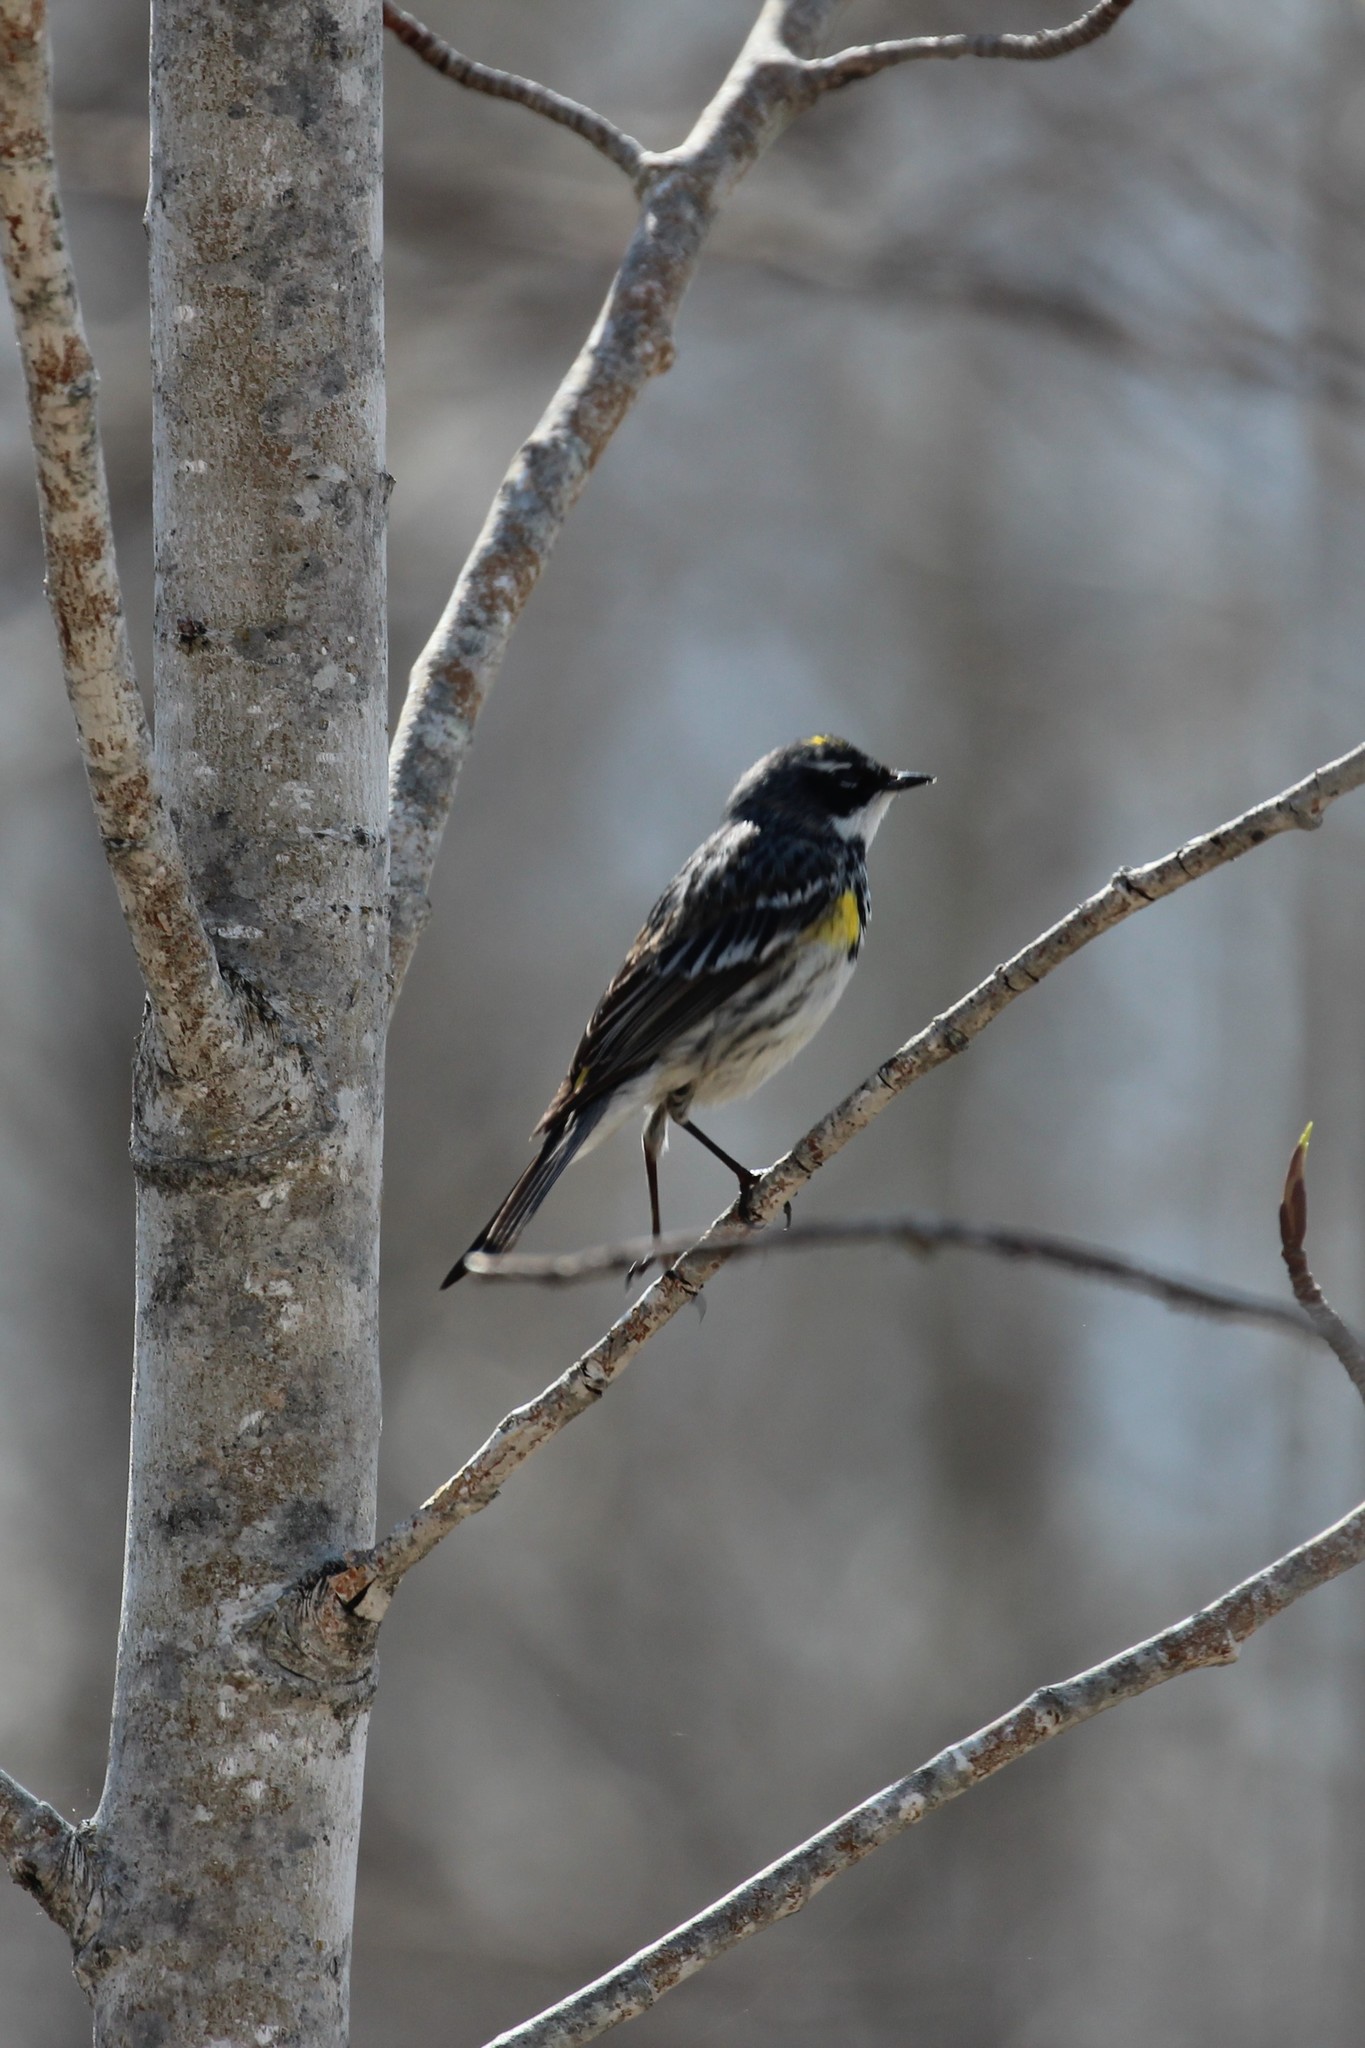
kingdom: Animalia
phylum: Chordata
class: Aves
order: Passeriformes
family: Parulidae
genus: Setophaga
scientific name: Setophaga coronata
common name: Myrtle warbler
